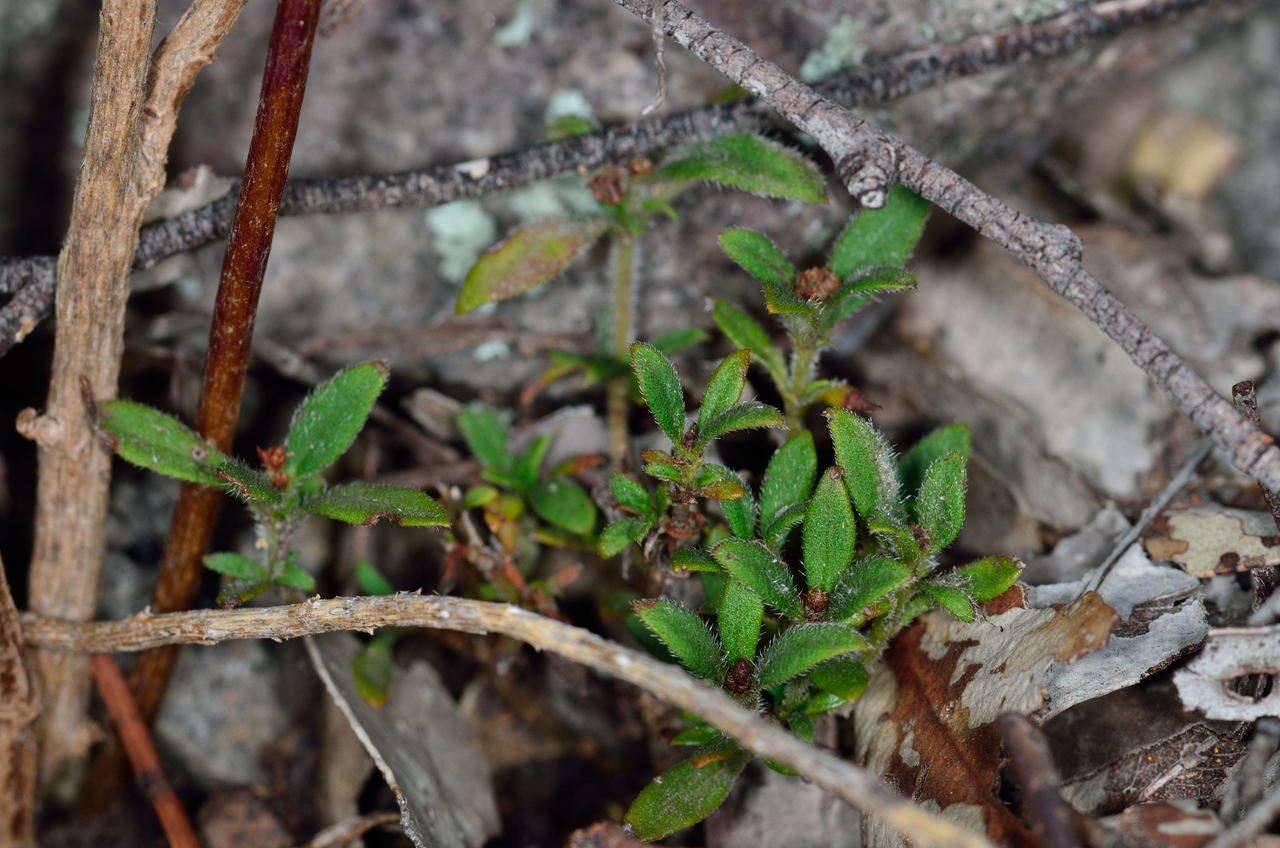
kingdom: Plantae
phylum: Tracheophyta
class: Magnoliopsida
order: Gentianales
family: Rubiaceae
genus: Pomax
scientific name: Pomax umbellata
